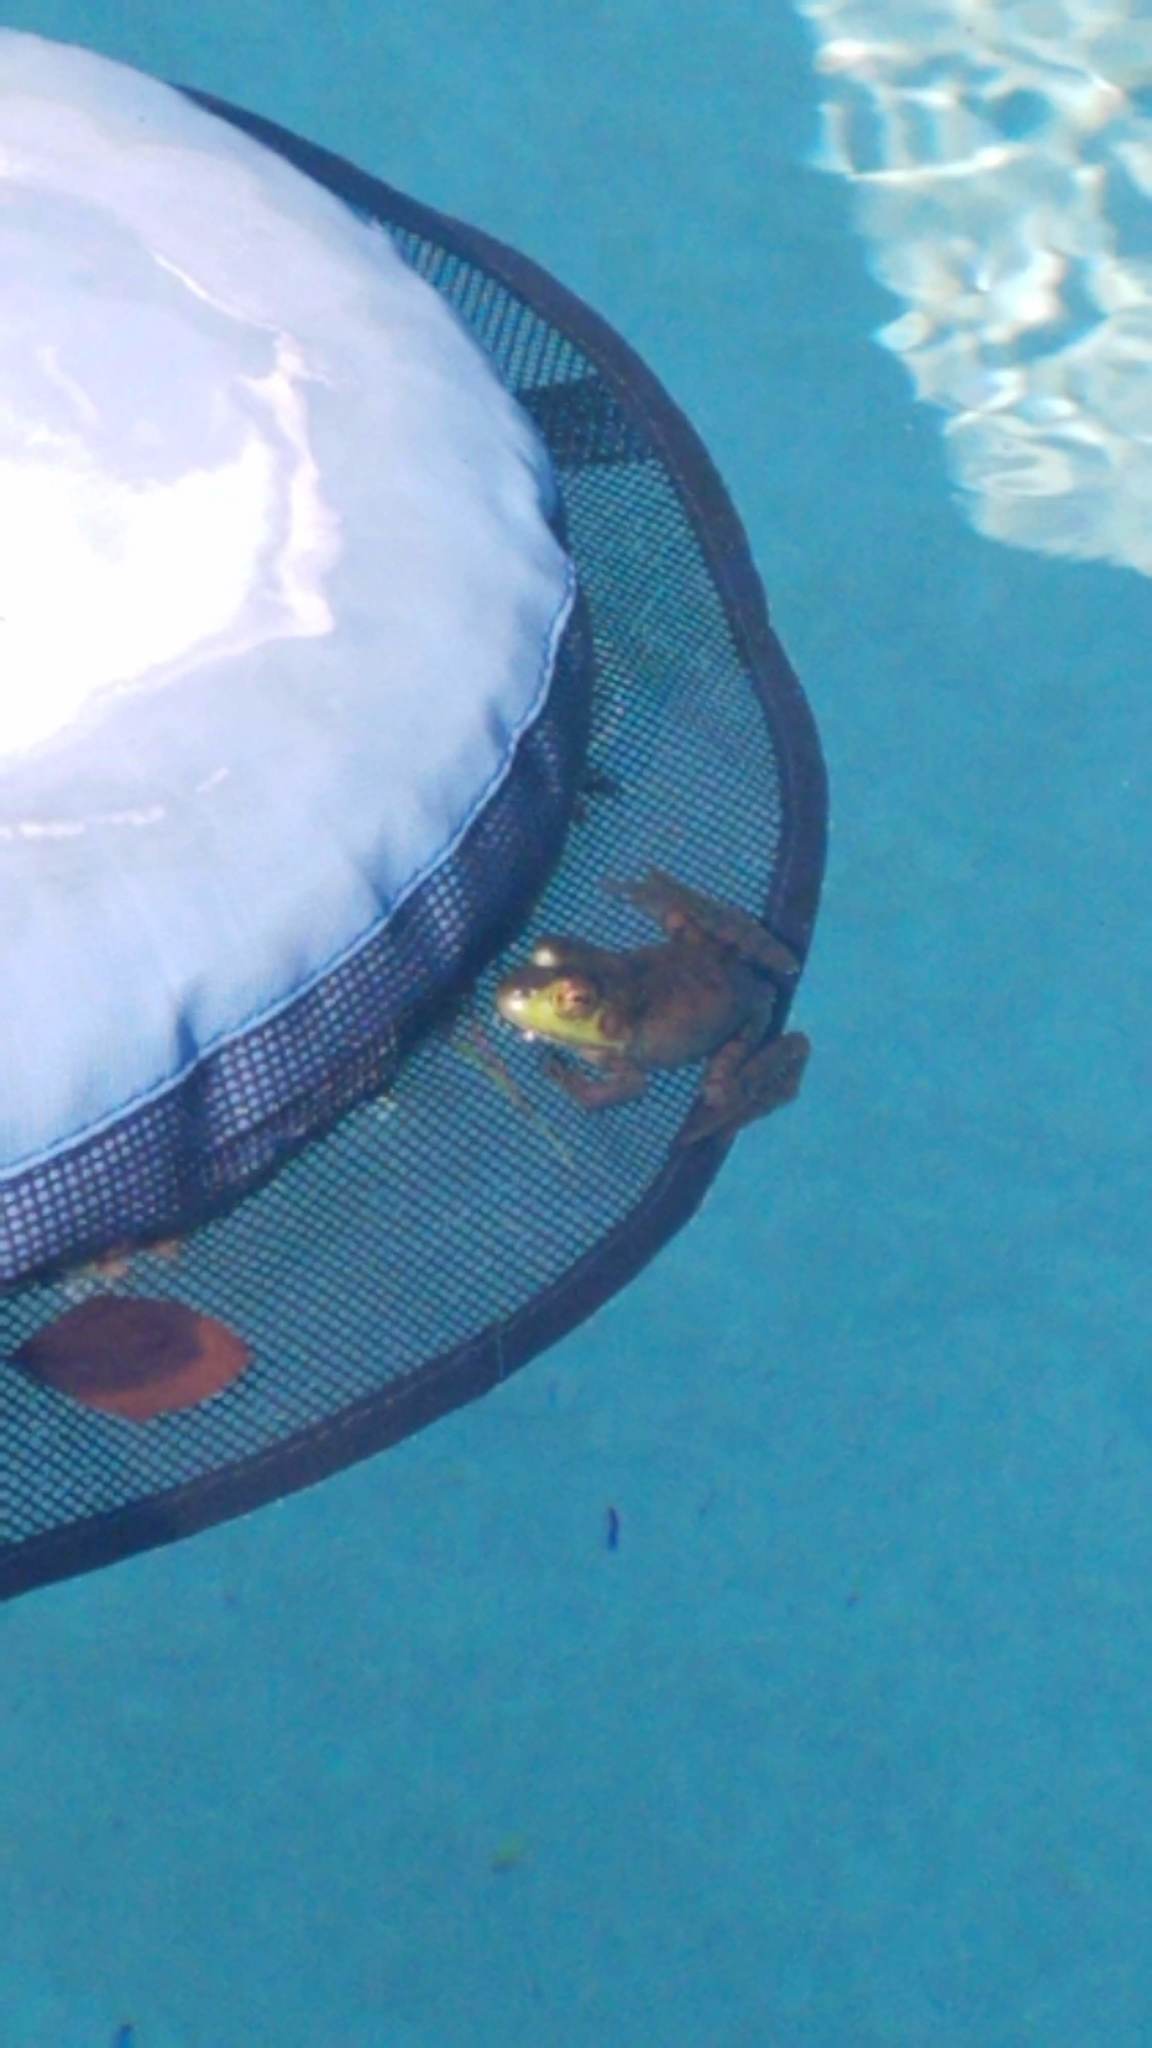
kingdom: Animalia
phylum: Chordata
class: Amphibia
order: Anura
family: Ranidae
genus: Lithobates
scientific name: Lithobates catesbeianus
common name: American bullfrog
